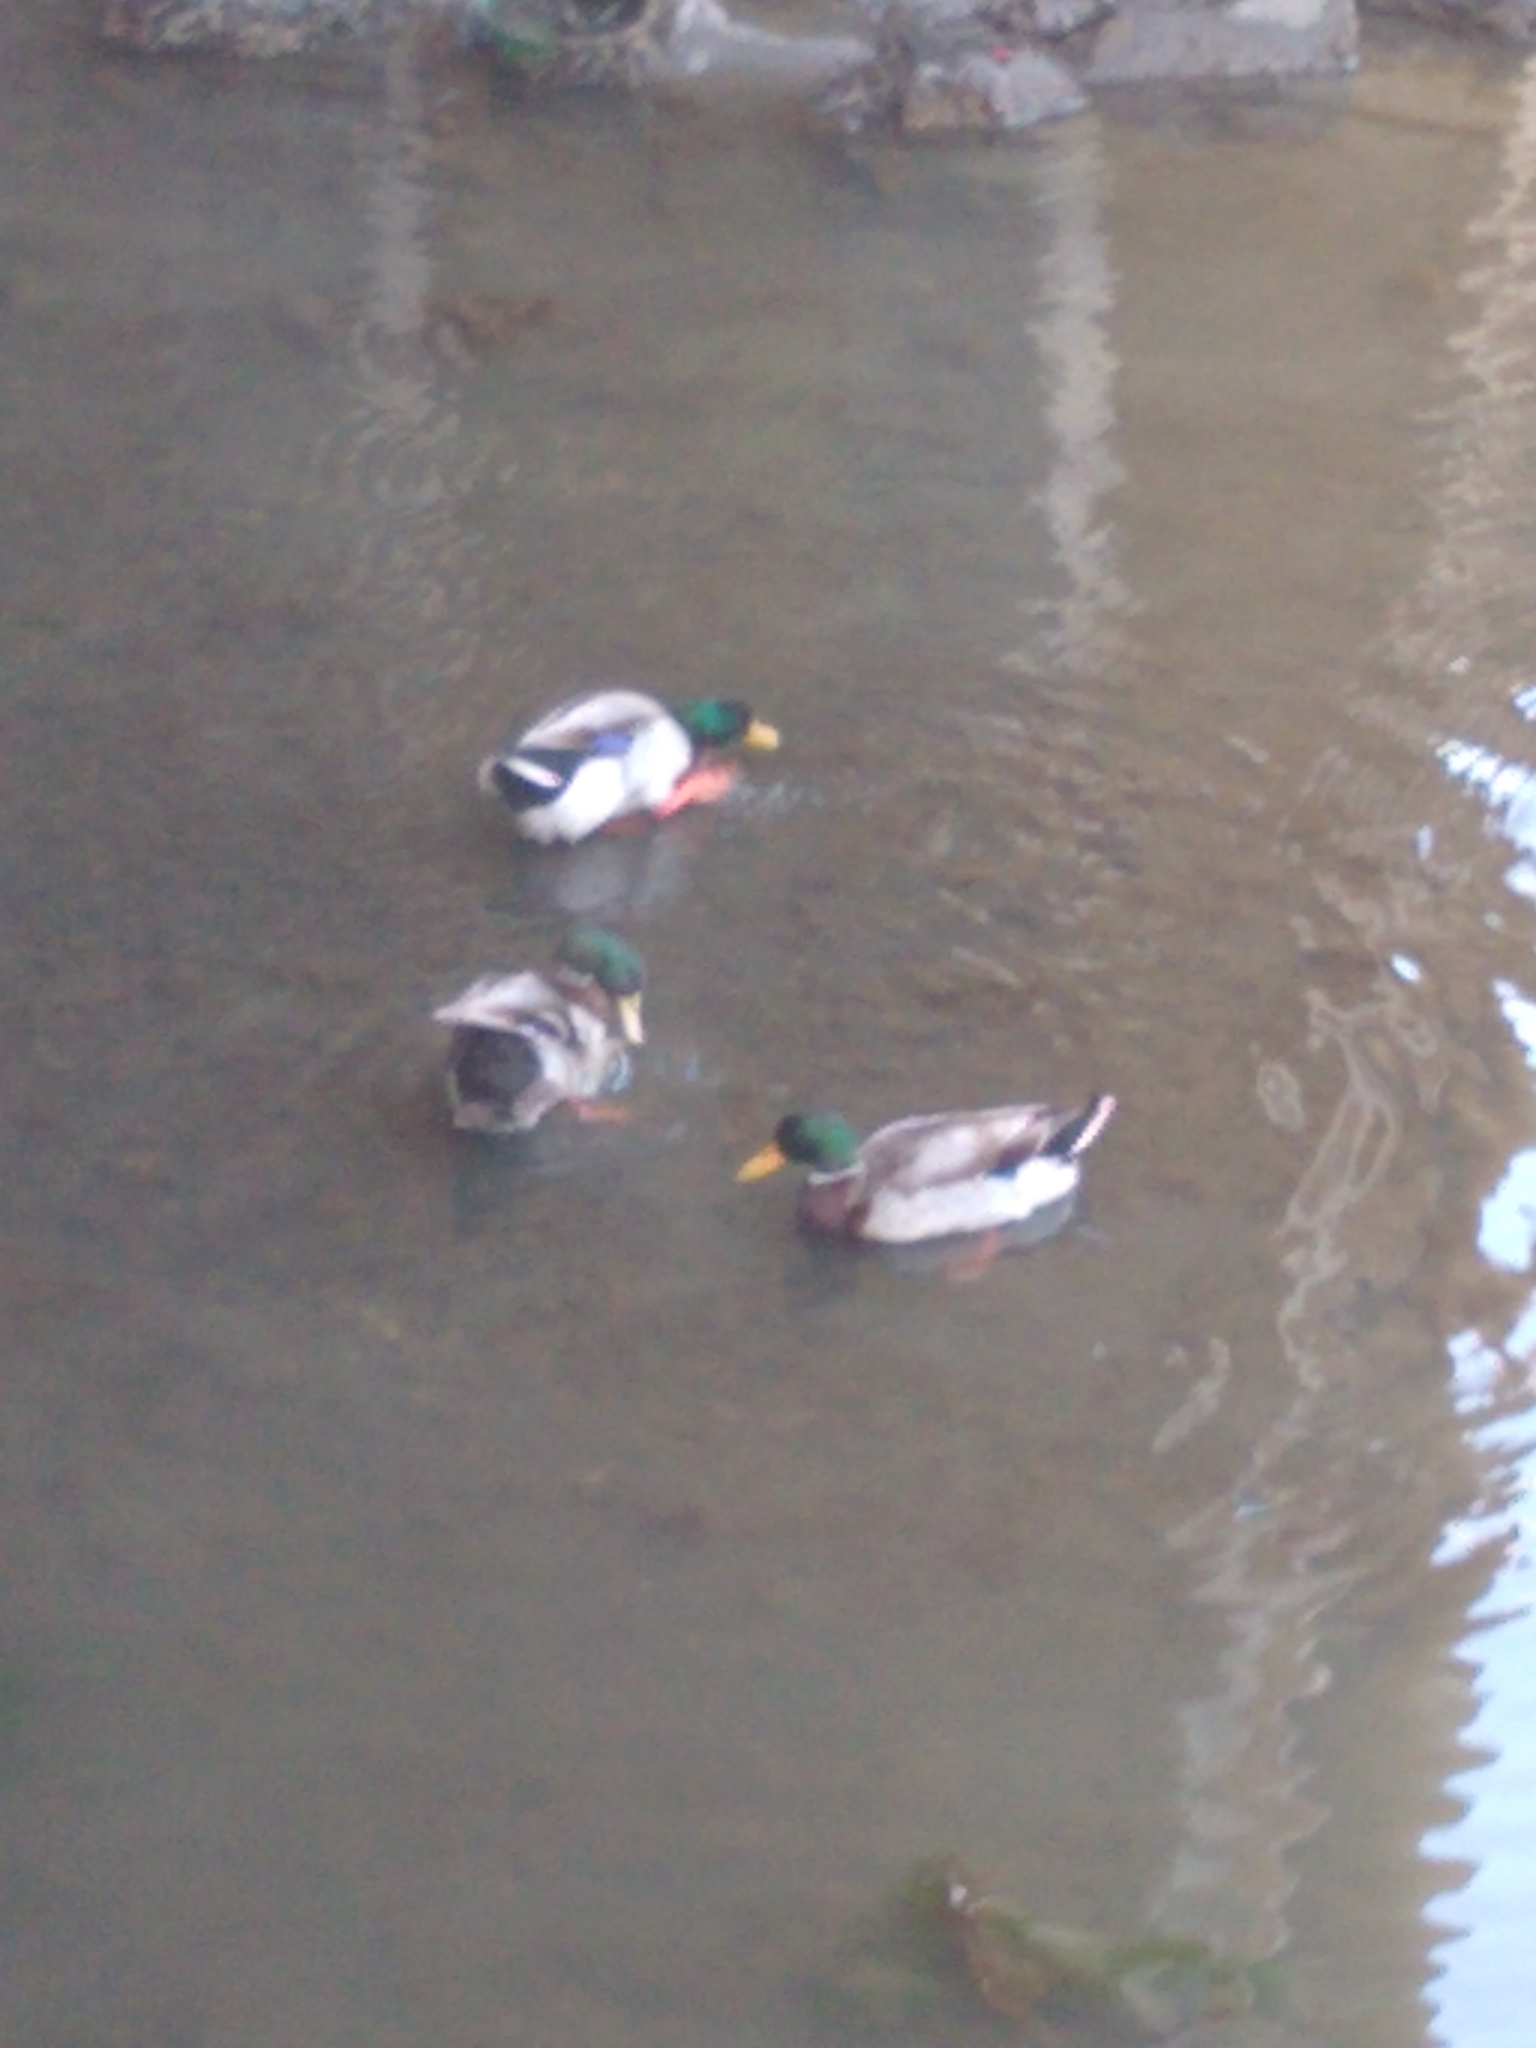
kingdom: Animalia
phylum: Chordata
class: Aves
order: Anseriformes
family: Anatidae
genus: Anas
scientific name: Anas platyrhynchos
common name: Mallard
